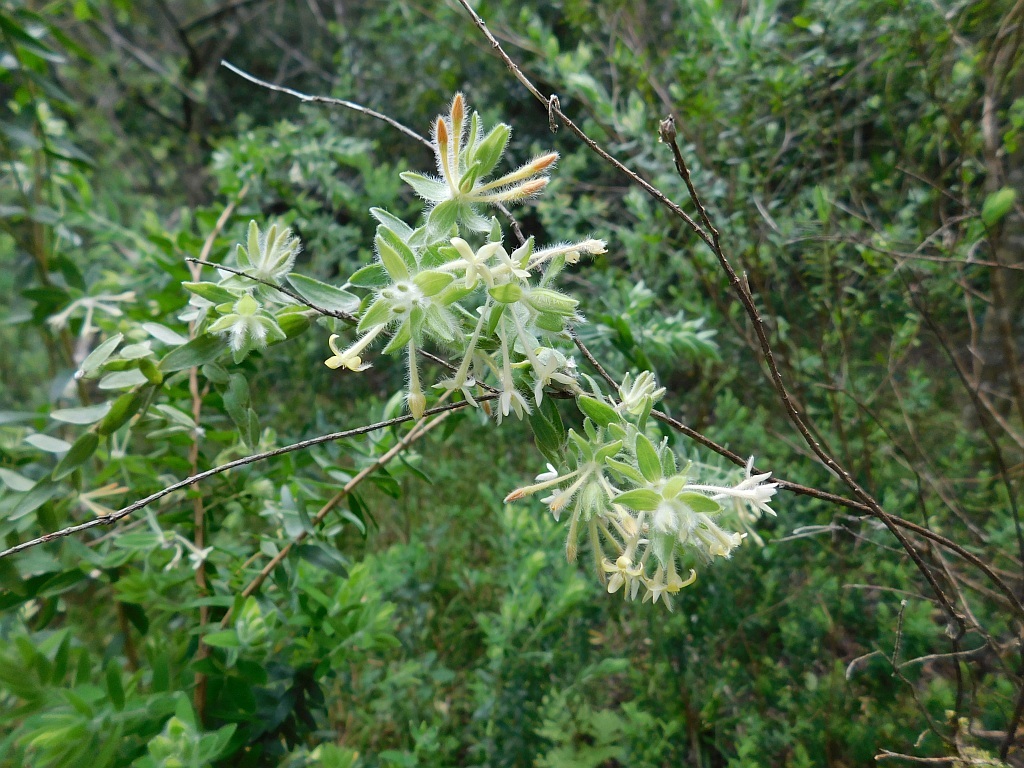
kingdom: Plantae
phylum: Tracheophyta
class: Magnoliopsida
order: Malvales
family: Thymelaeaceae
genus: Gnidia
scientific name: Gnidia
